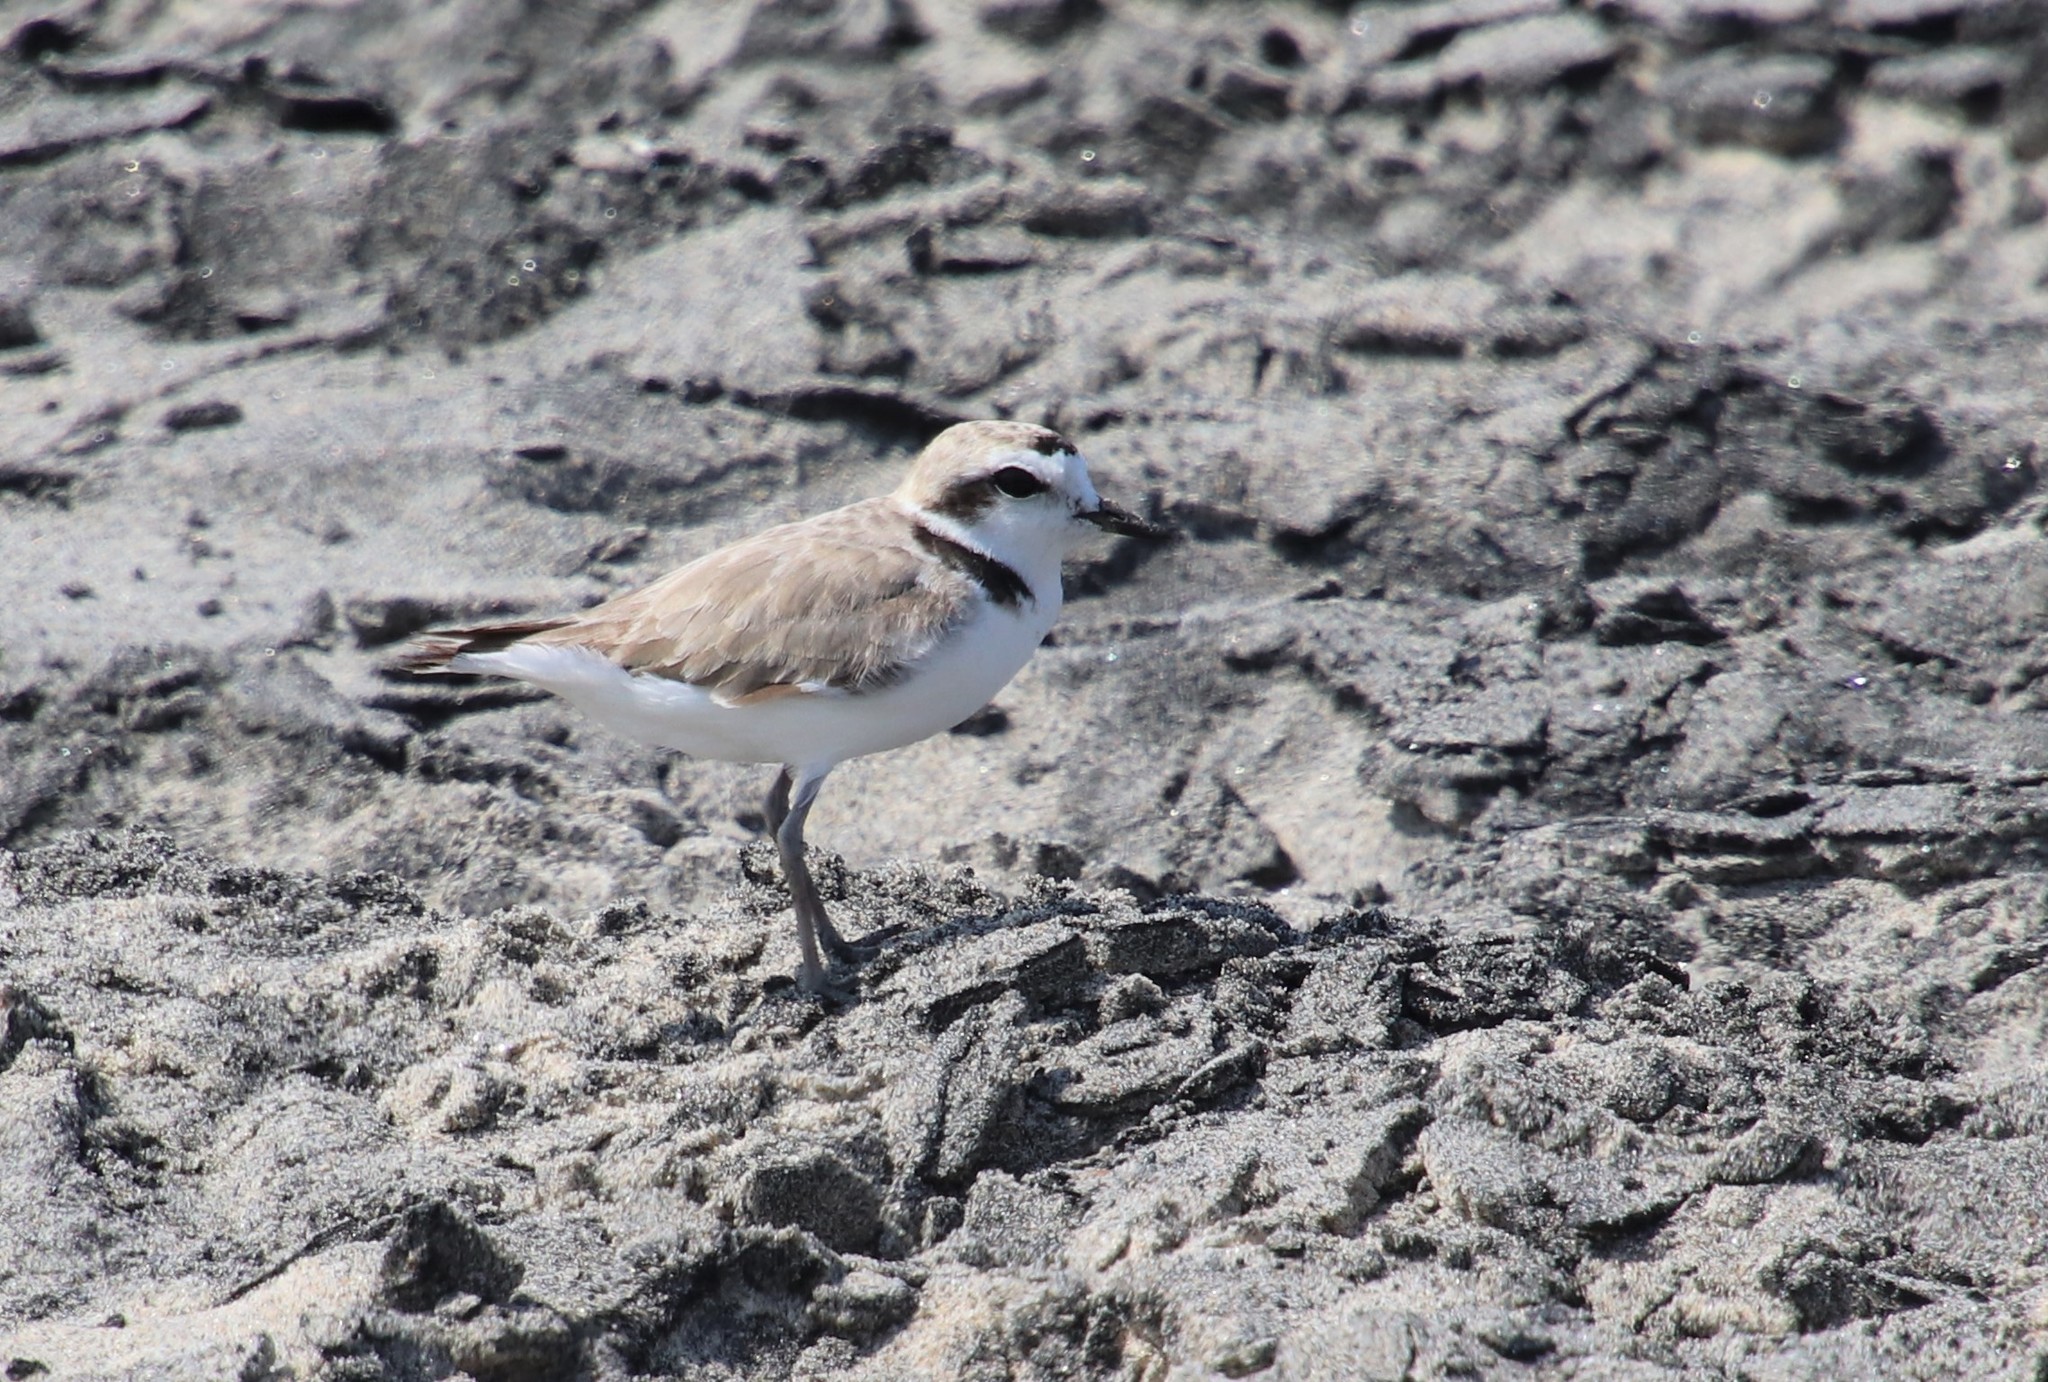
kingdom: Animalia
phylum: Chordata
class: Aves
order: Charadriiformes
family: Charadriidae
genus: Anarhynchus
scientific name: Anarhynchus
